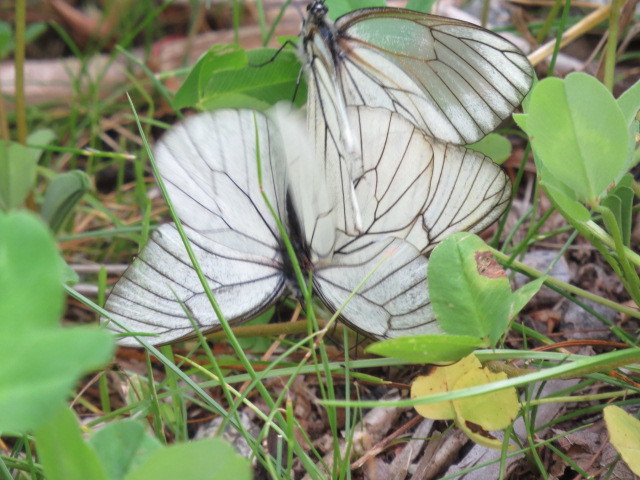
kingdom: Animalia
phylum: Arthropoda
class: Insecta
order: Lepidoptera
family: Pieridae
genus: Aporia
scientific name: Aporia crataegi
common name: Black-veined white
